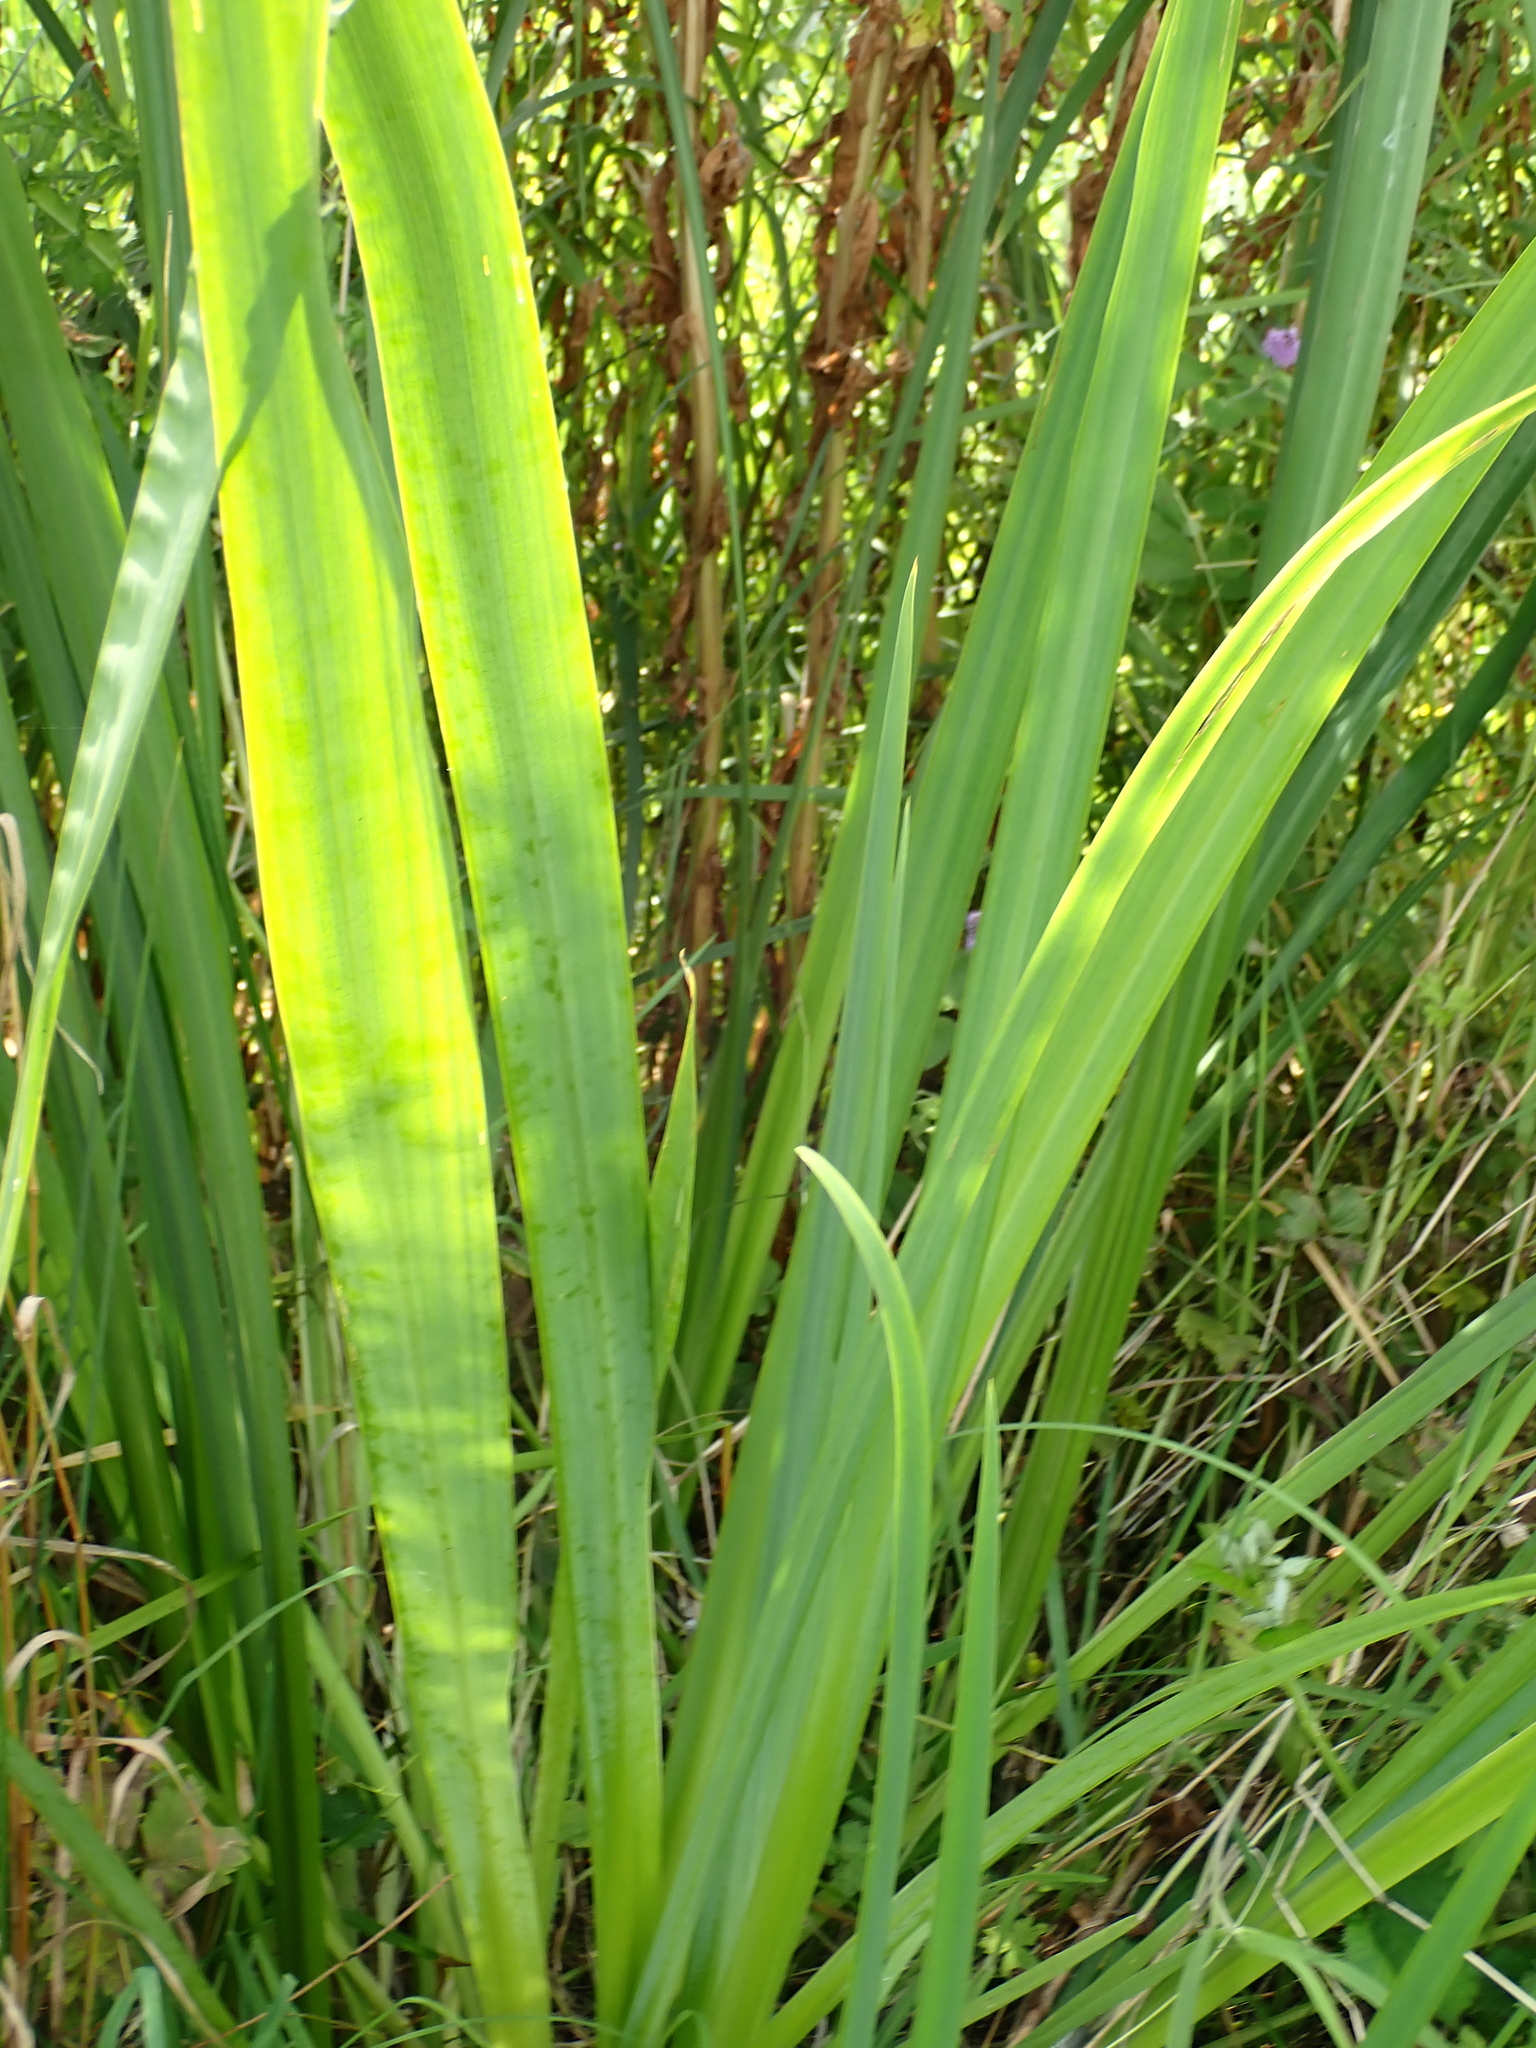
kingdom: Plantae
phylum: Tracheophyta
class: Liliopsida
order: Asparagales
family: Iridaceae
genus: Iris
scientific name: Iris pseudacorus
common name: Yellow flag
